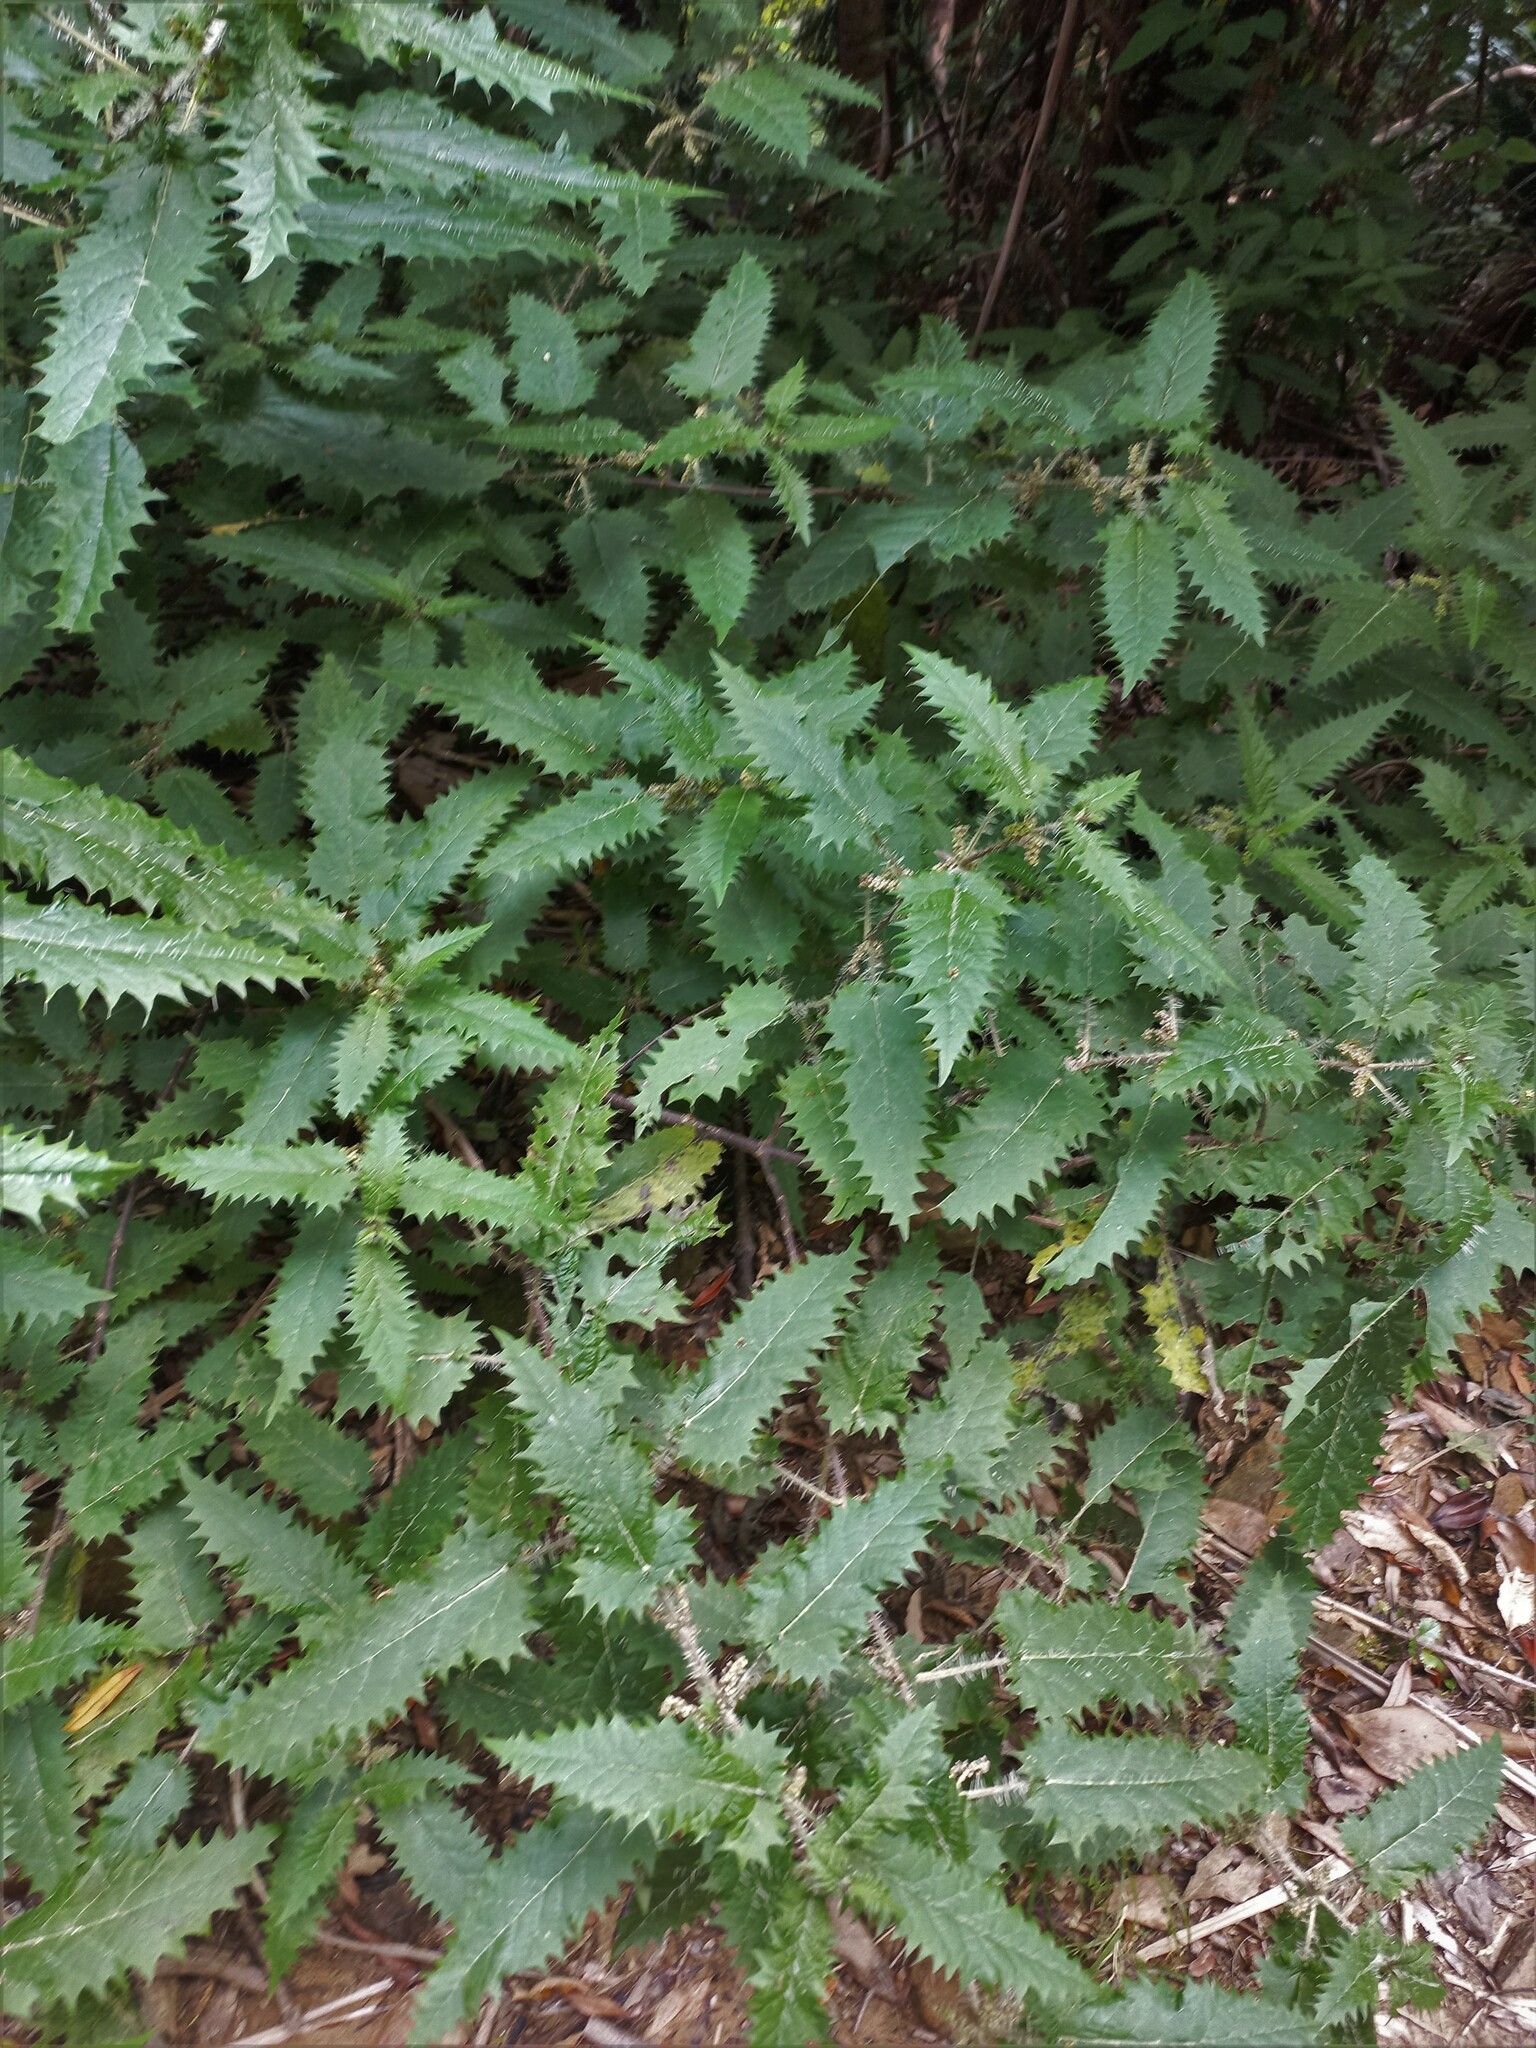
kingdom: Plantae
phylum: Tracheophyta
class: Magnoliopsida
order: Rosales
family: Urticaceae
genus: Urtica
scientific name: Urtica ferox
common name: Tree nettle
